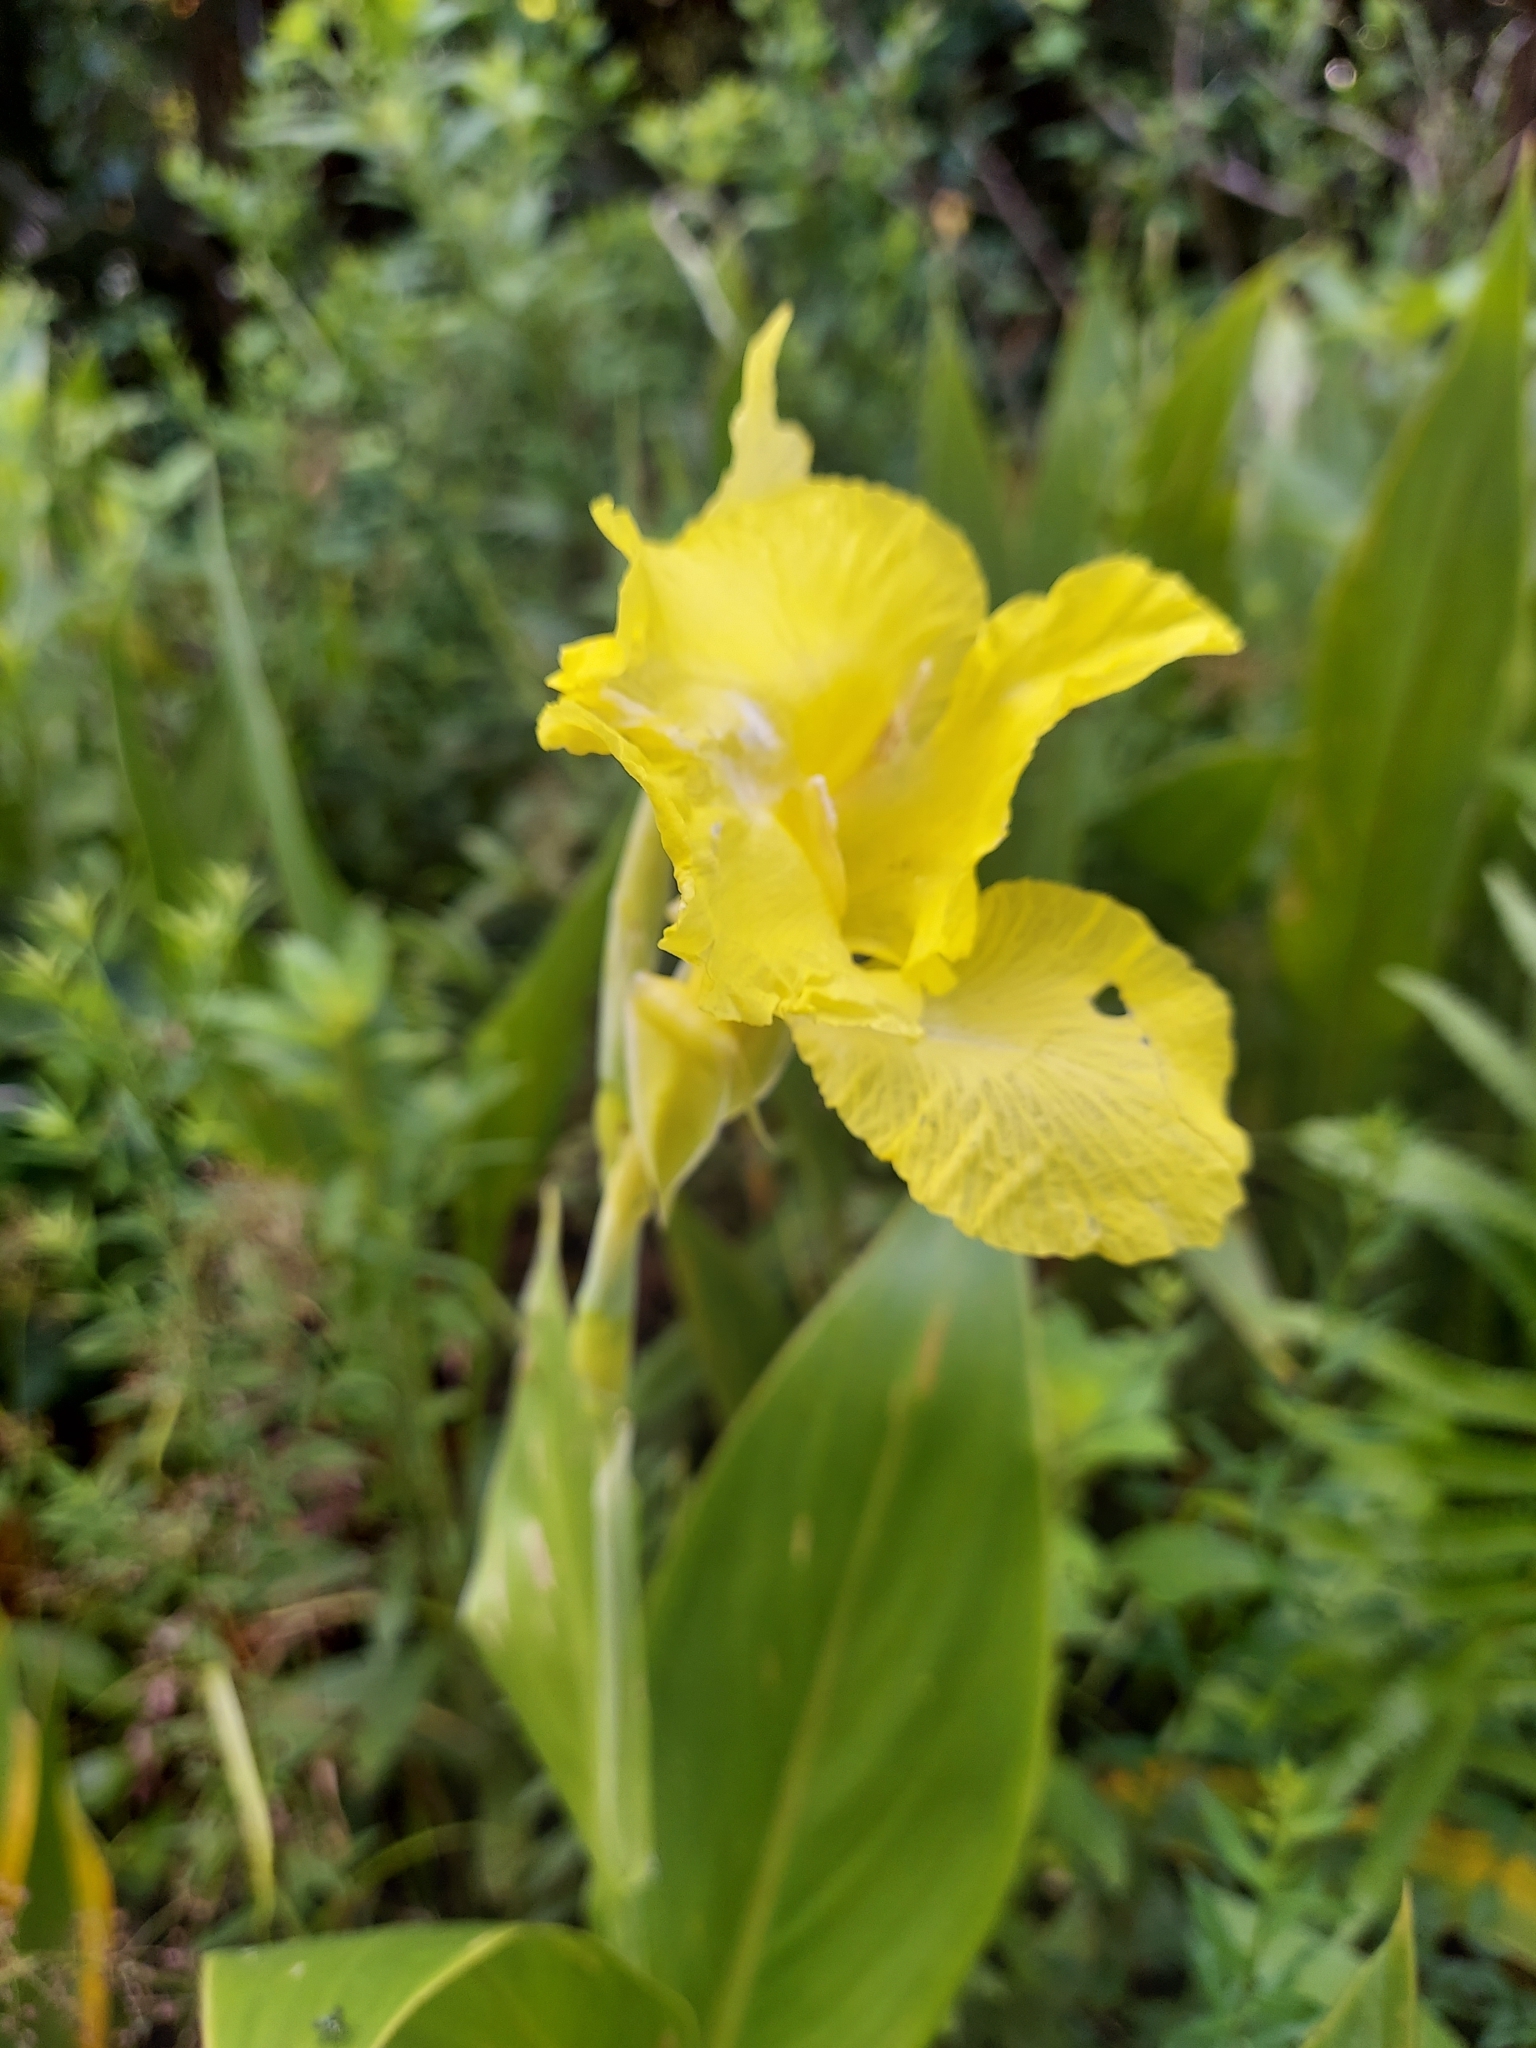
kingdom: Plantae
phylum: Tracheophyta
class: Liliopsida
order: Zingiberales
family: Cannaceae
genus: Canna
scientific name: Canna flaccida
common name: Bandana-of-the-everglades
